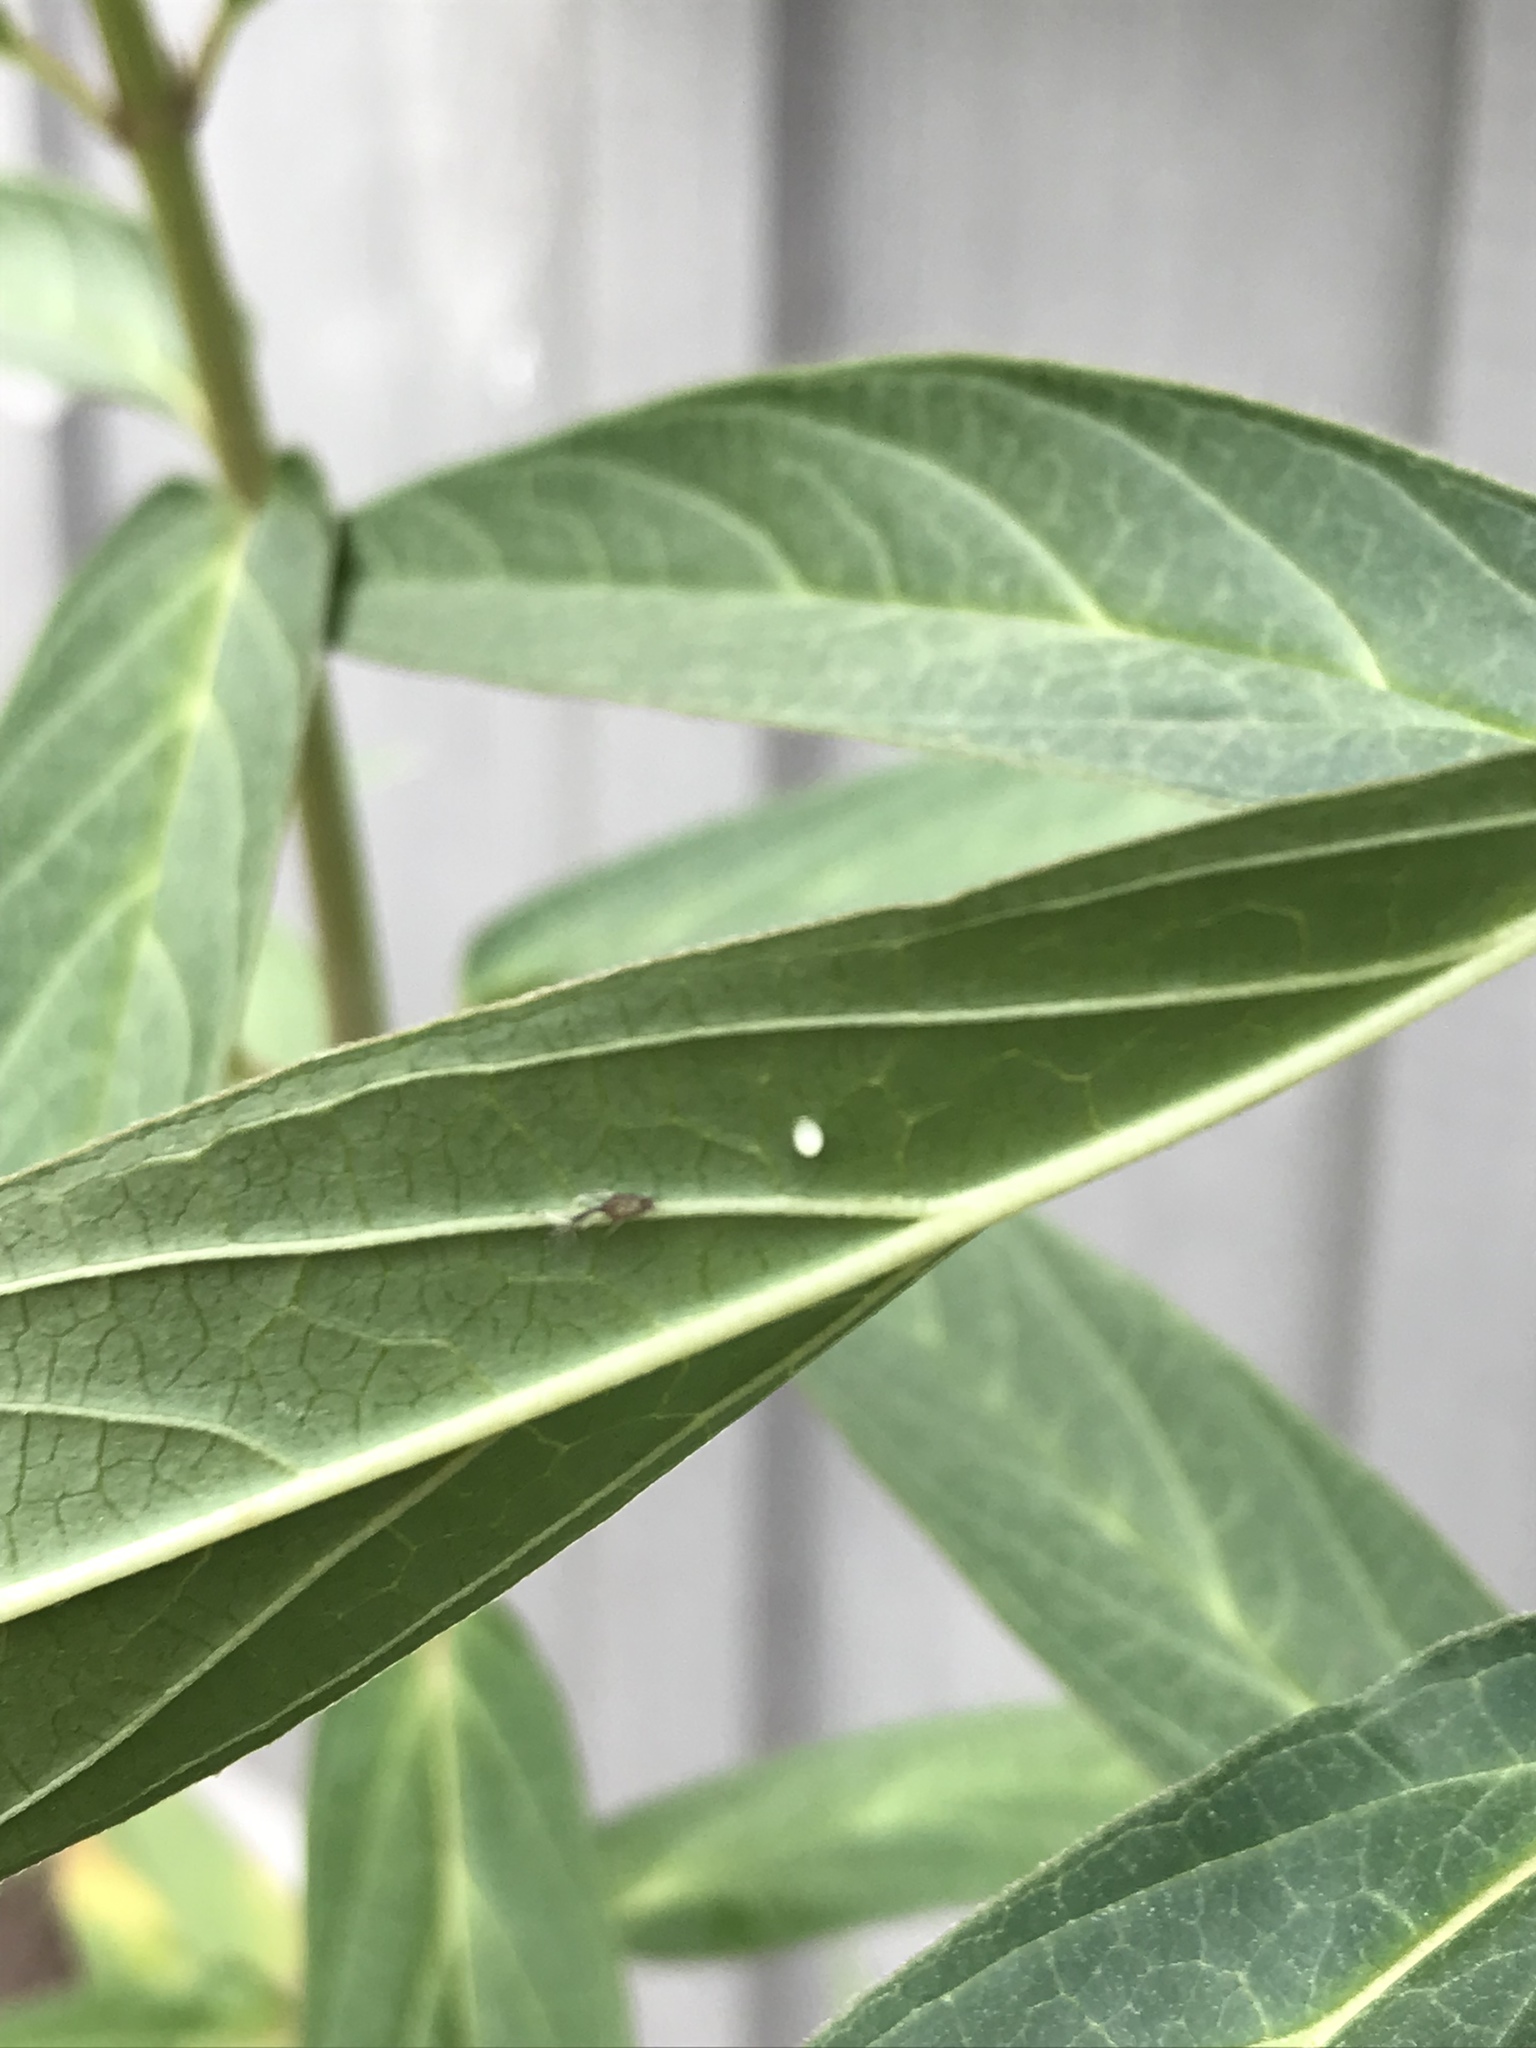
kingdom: Animalia
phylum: Arthropoda
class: Insecta
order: Lepidoptera
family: Nymphalidae
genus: Danaus
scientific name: Danaus plexippus
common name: Monarch
